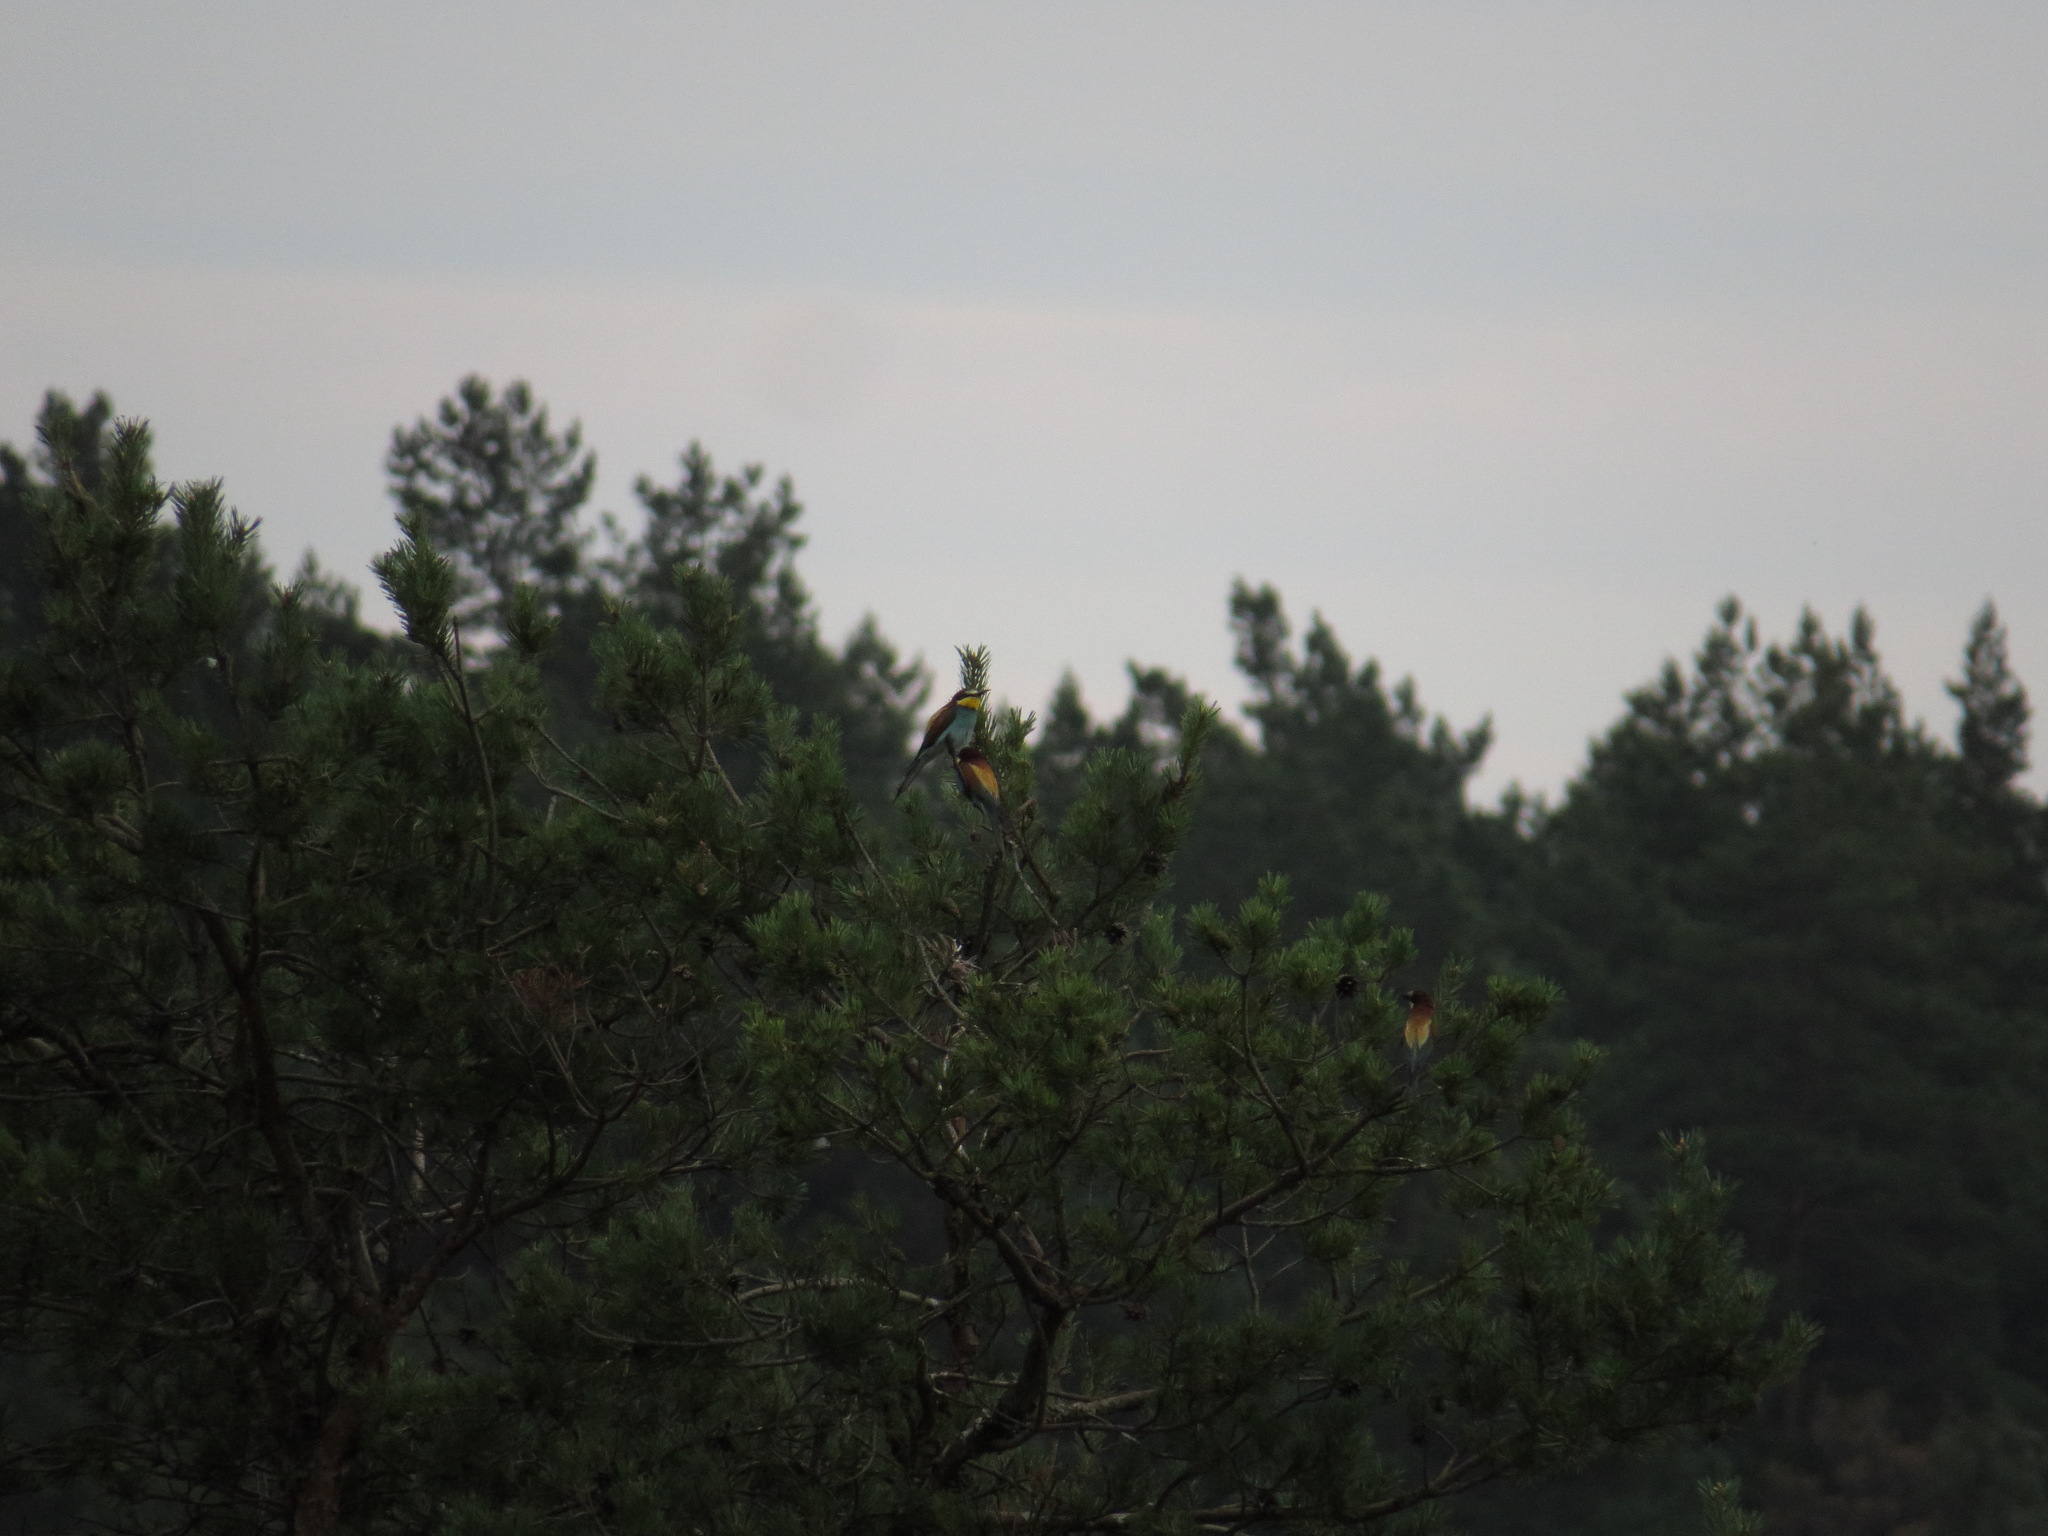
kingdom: Animalia
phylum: Chordata
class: Aves
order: Coraciiformes
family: Meropidae
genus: Merops
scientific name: Merops apiaster
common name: European bee-eater
